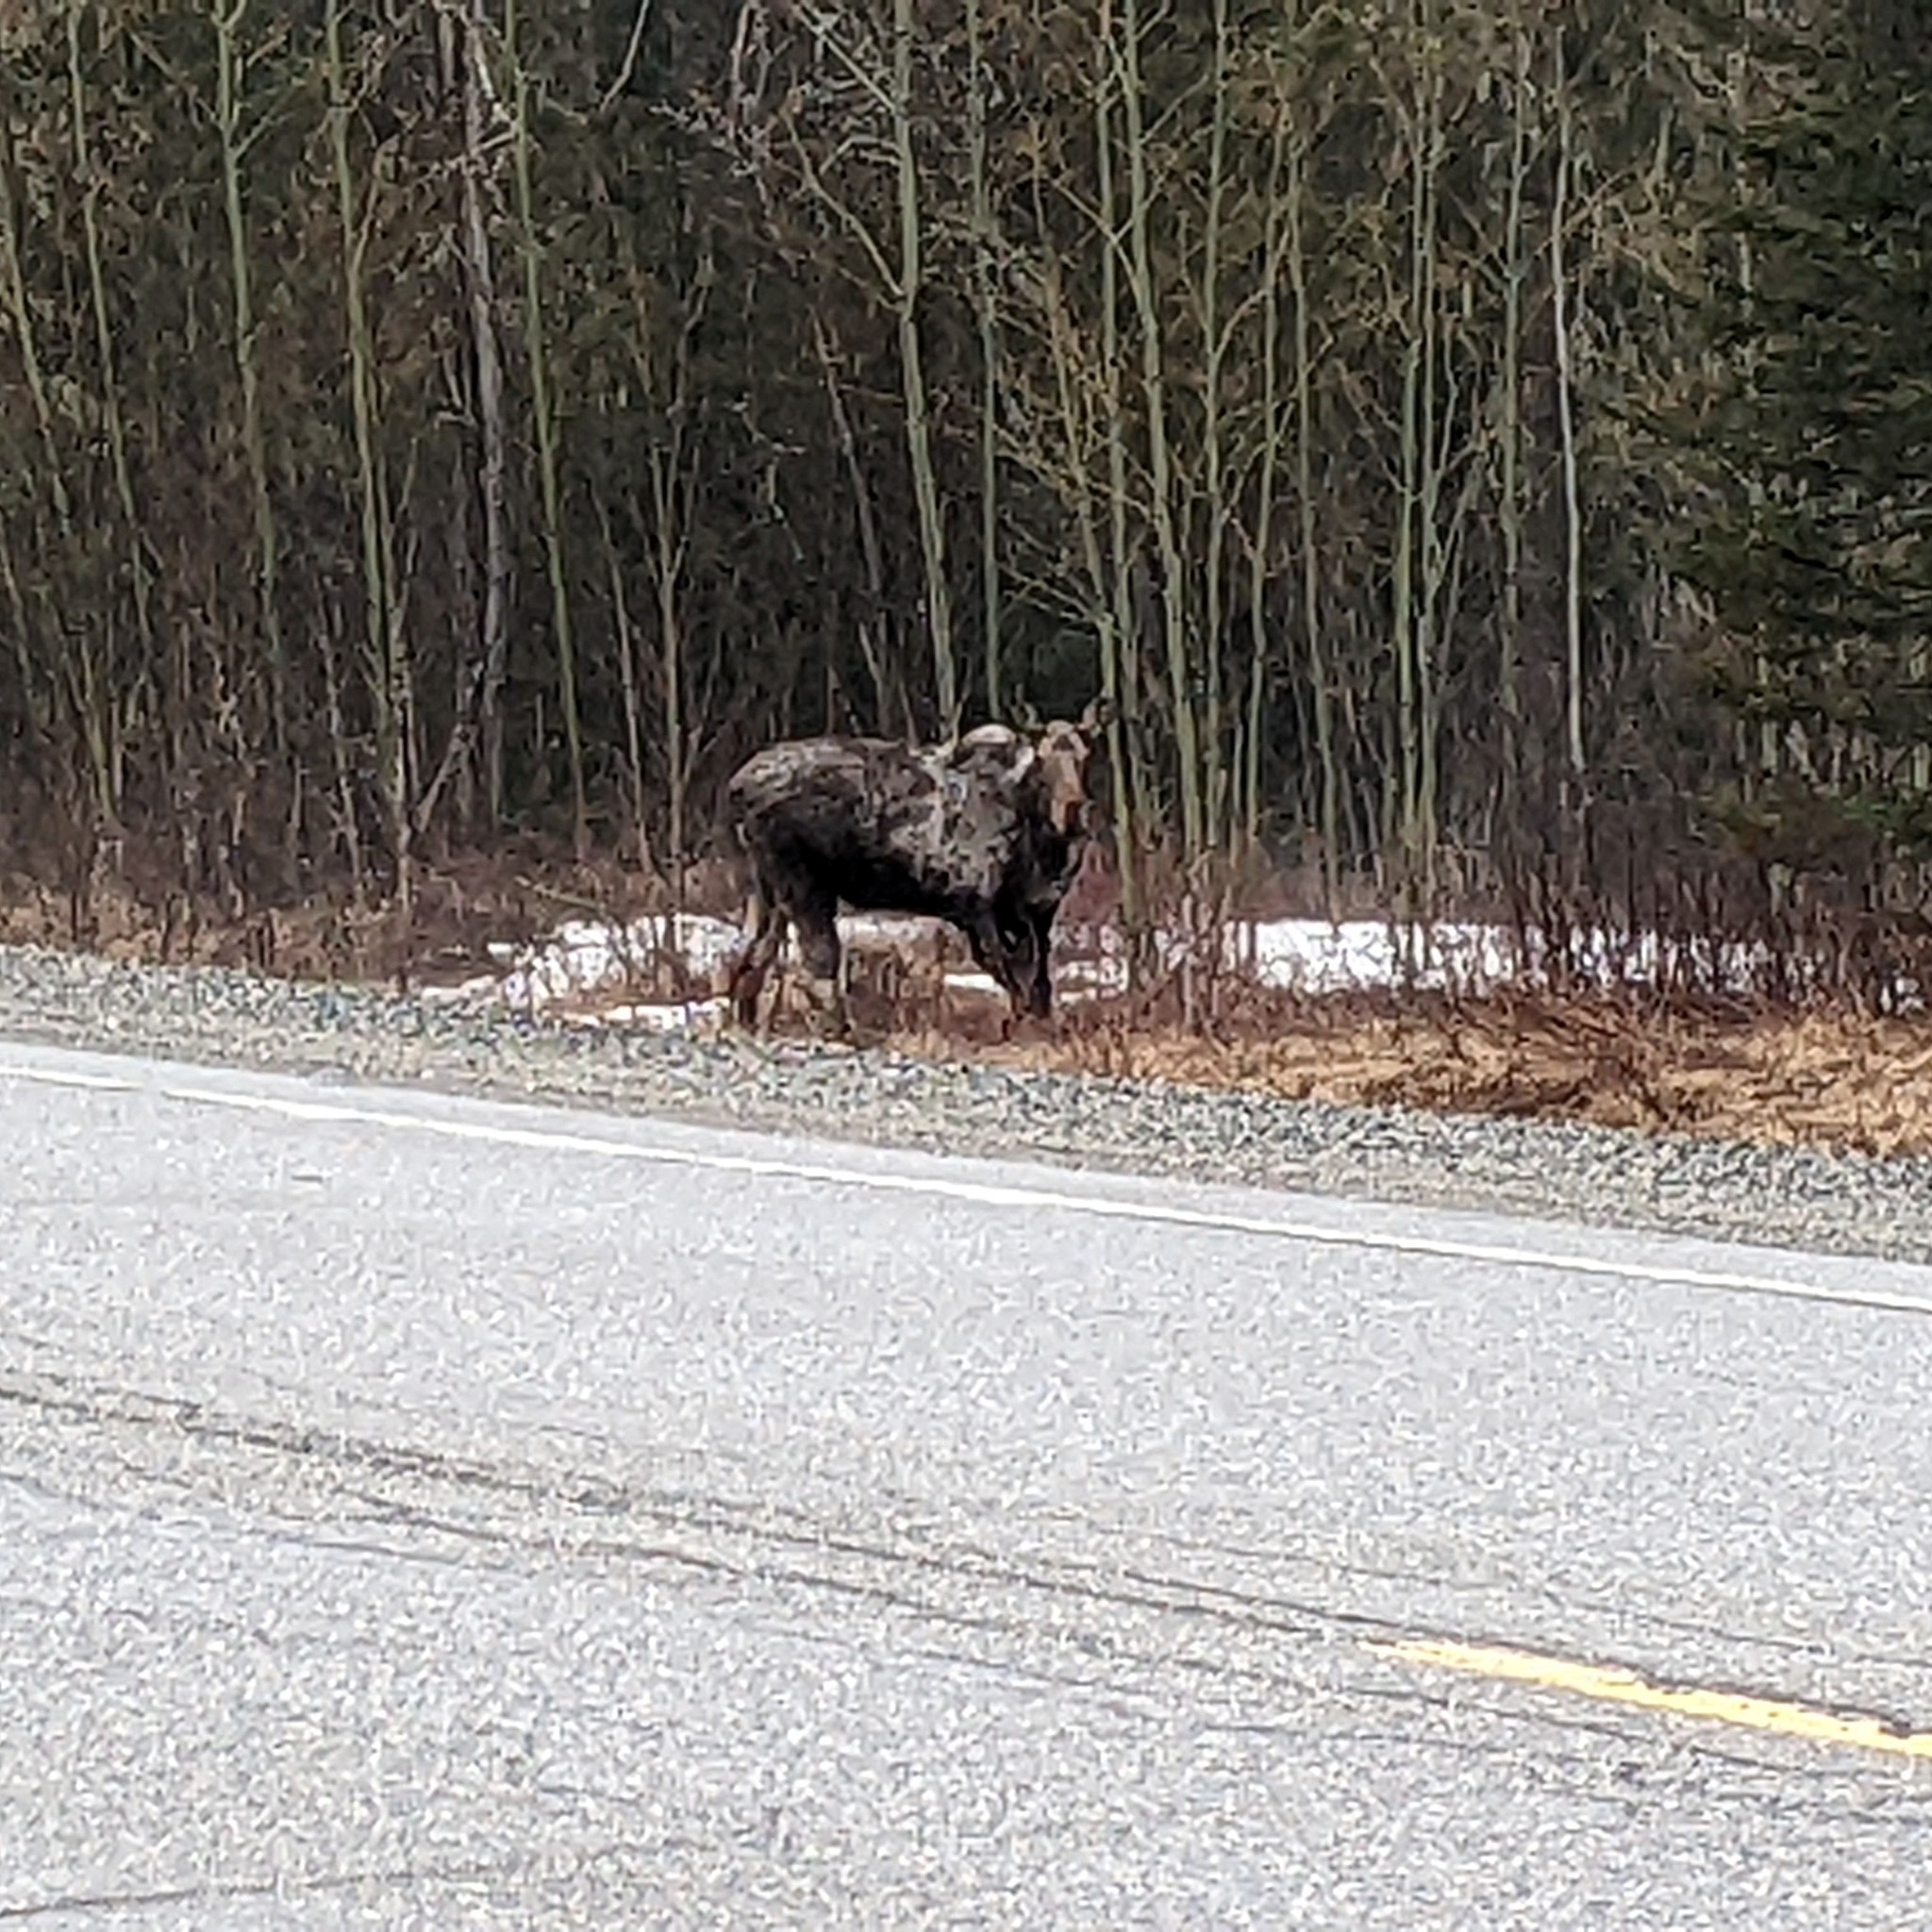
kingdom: Animalia
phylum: Chordata
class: Mammalia
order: Artiodactyla
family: Cervidae
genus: Alces
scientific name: Alces alces
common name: Moose
